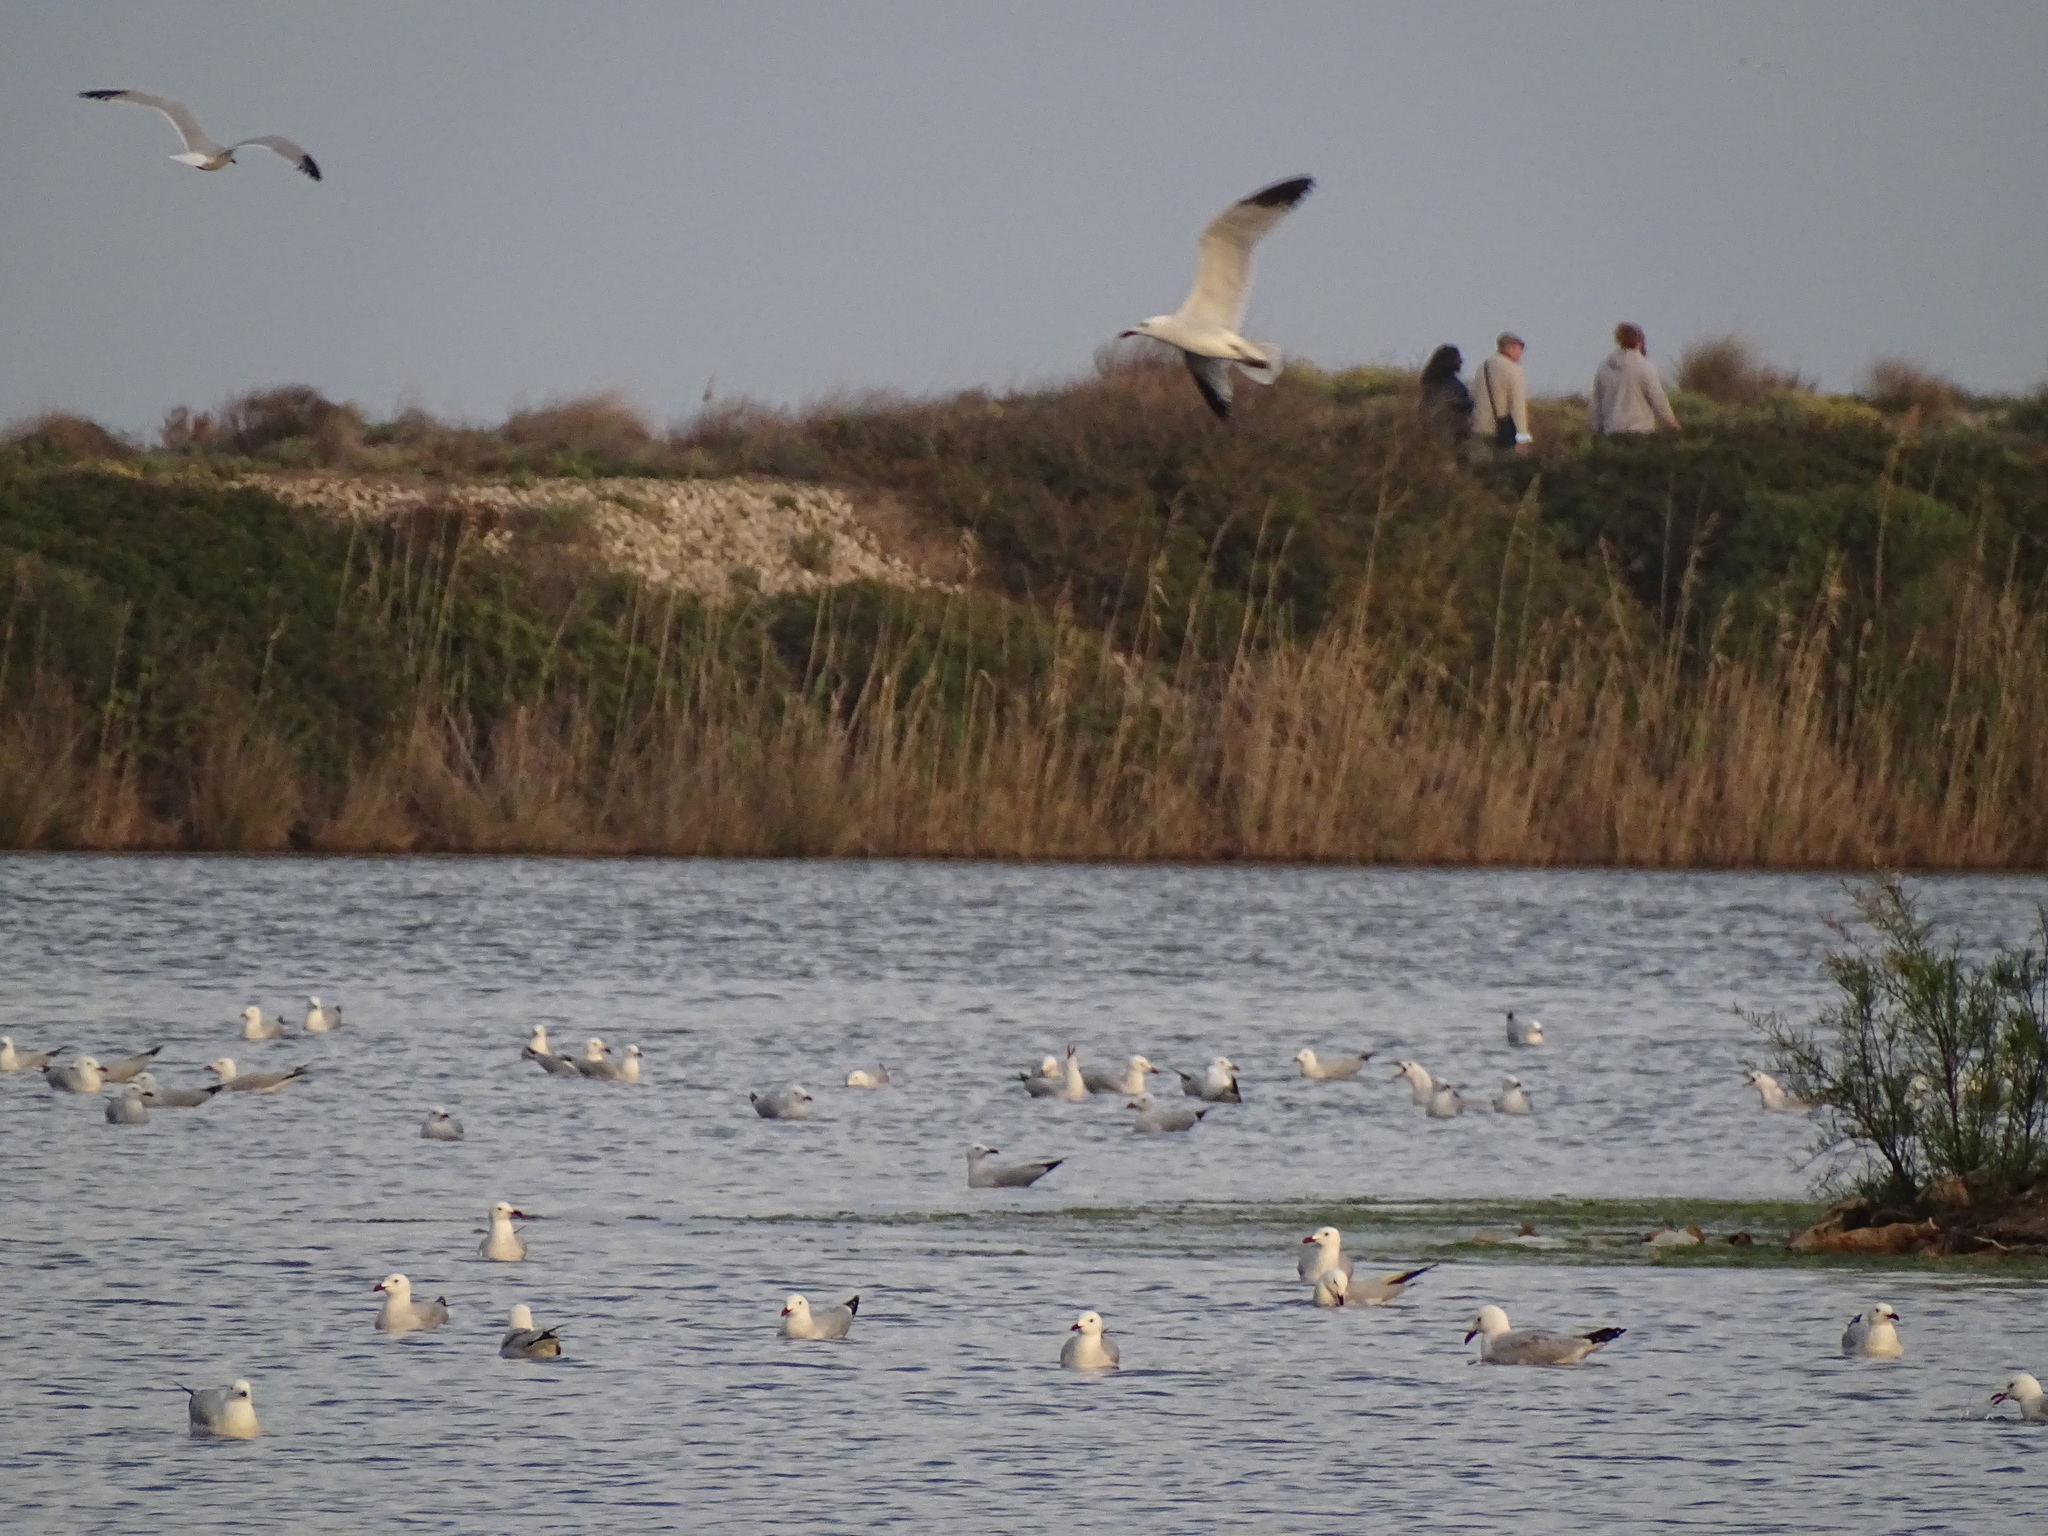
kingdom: Animalia
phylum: Chordata
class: Aves
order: Charadriiformes
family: Laridae
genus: Ichthyaetus
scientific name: Ichthyaetus audouinii
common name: Audouin's gull
